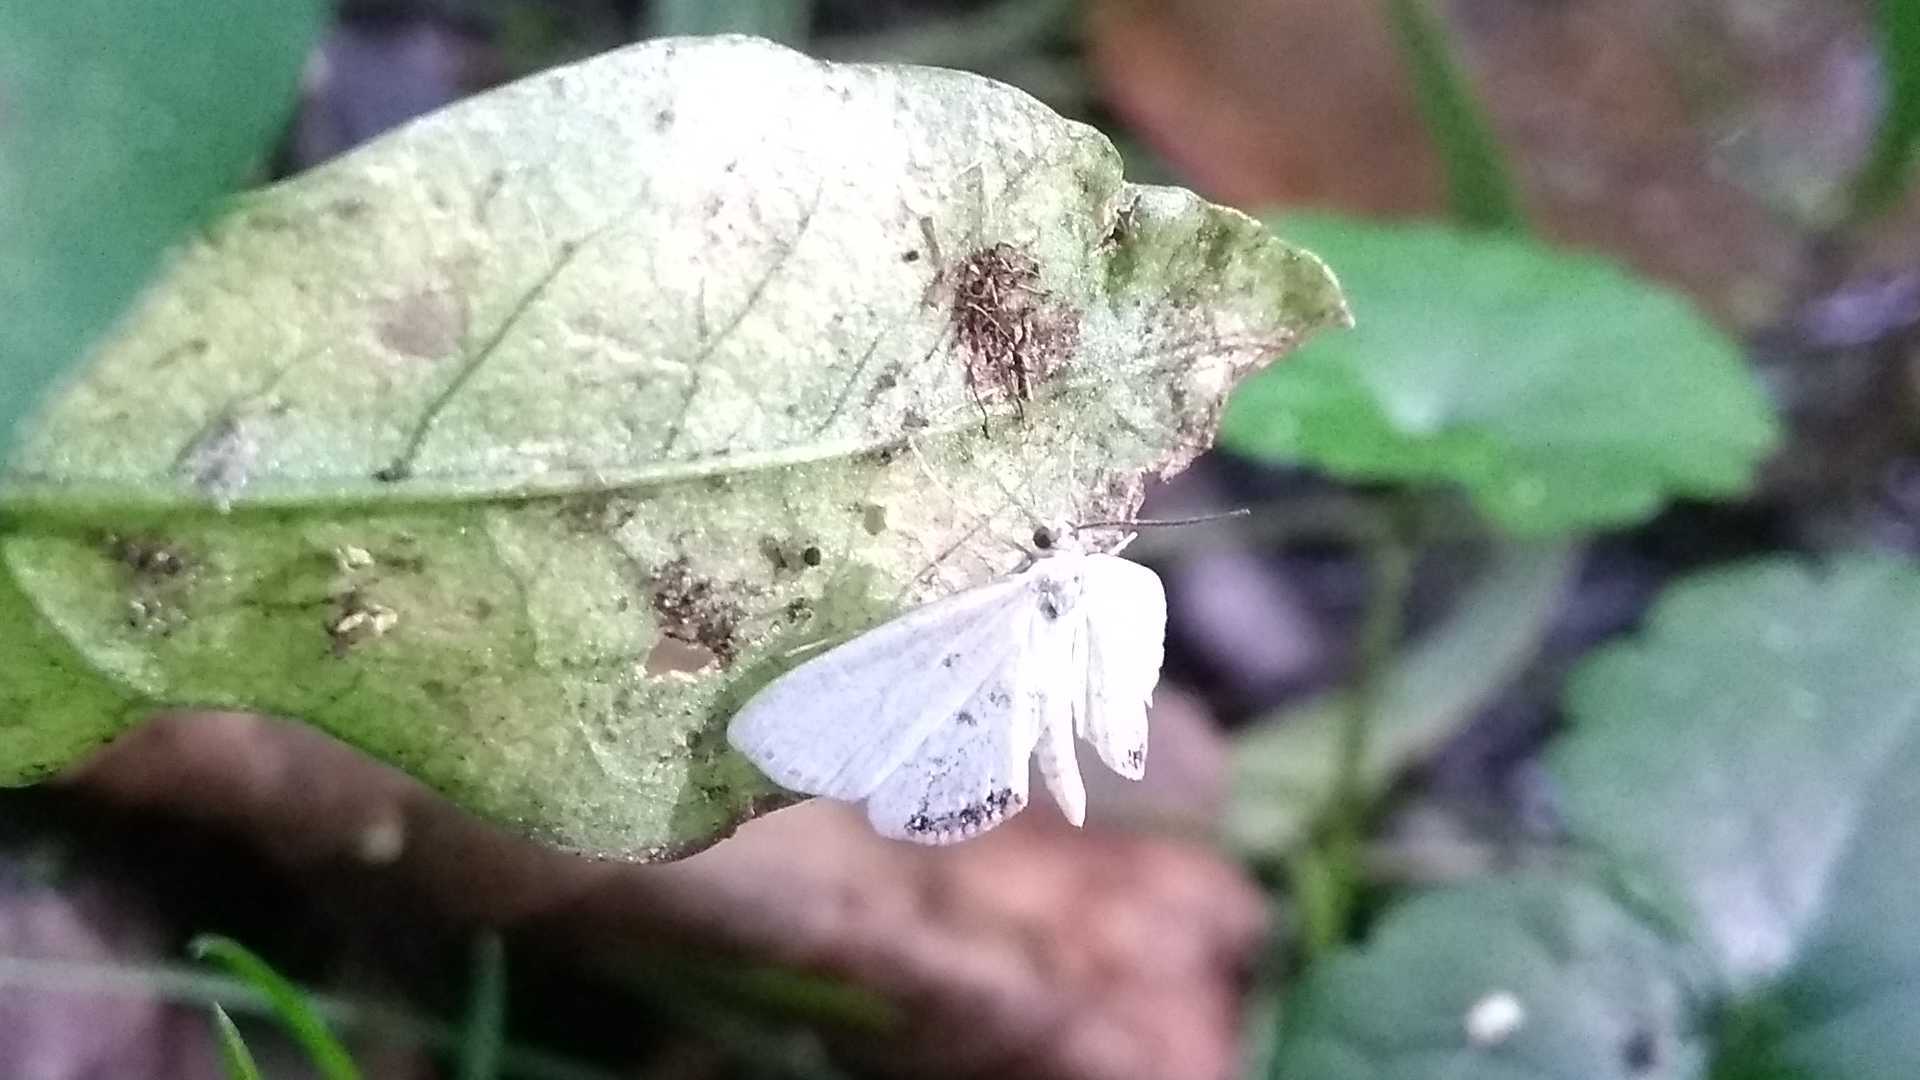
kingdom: Animalia
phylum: Arthropoda
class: Insecta
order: Lepidoptera
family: Crambidae
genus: Cataclysta
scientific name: Cataclysta lemnata
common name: Small china-mark
